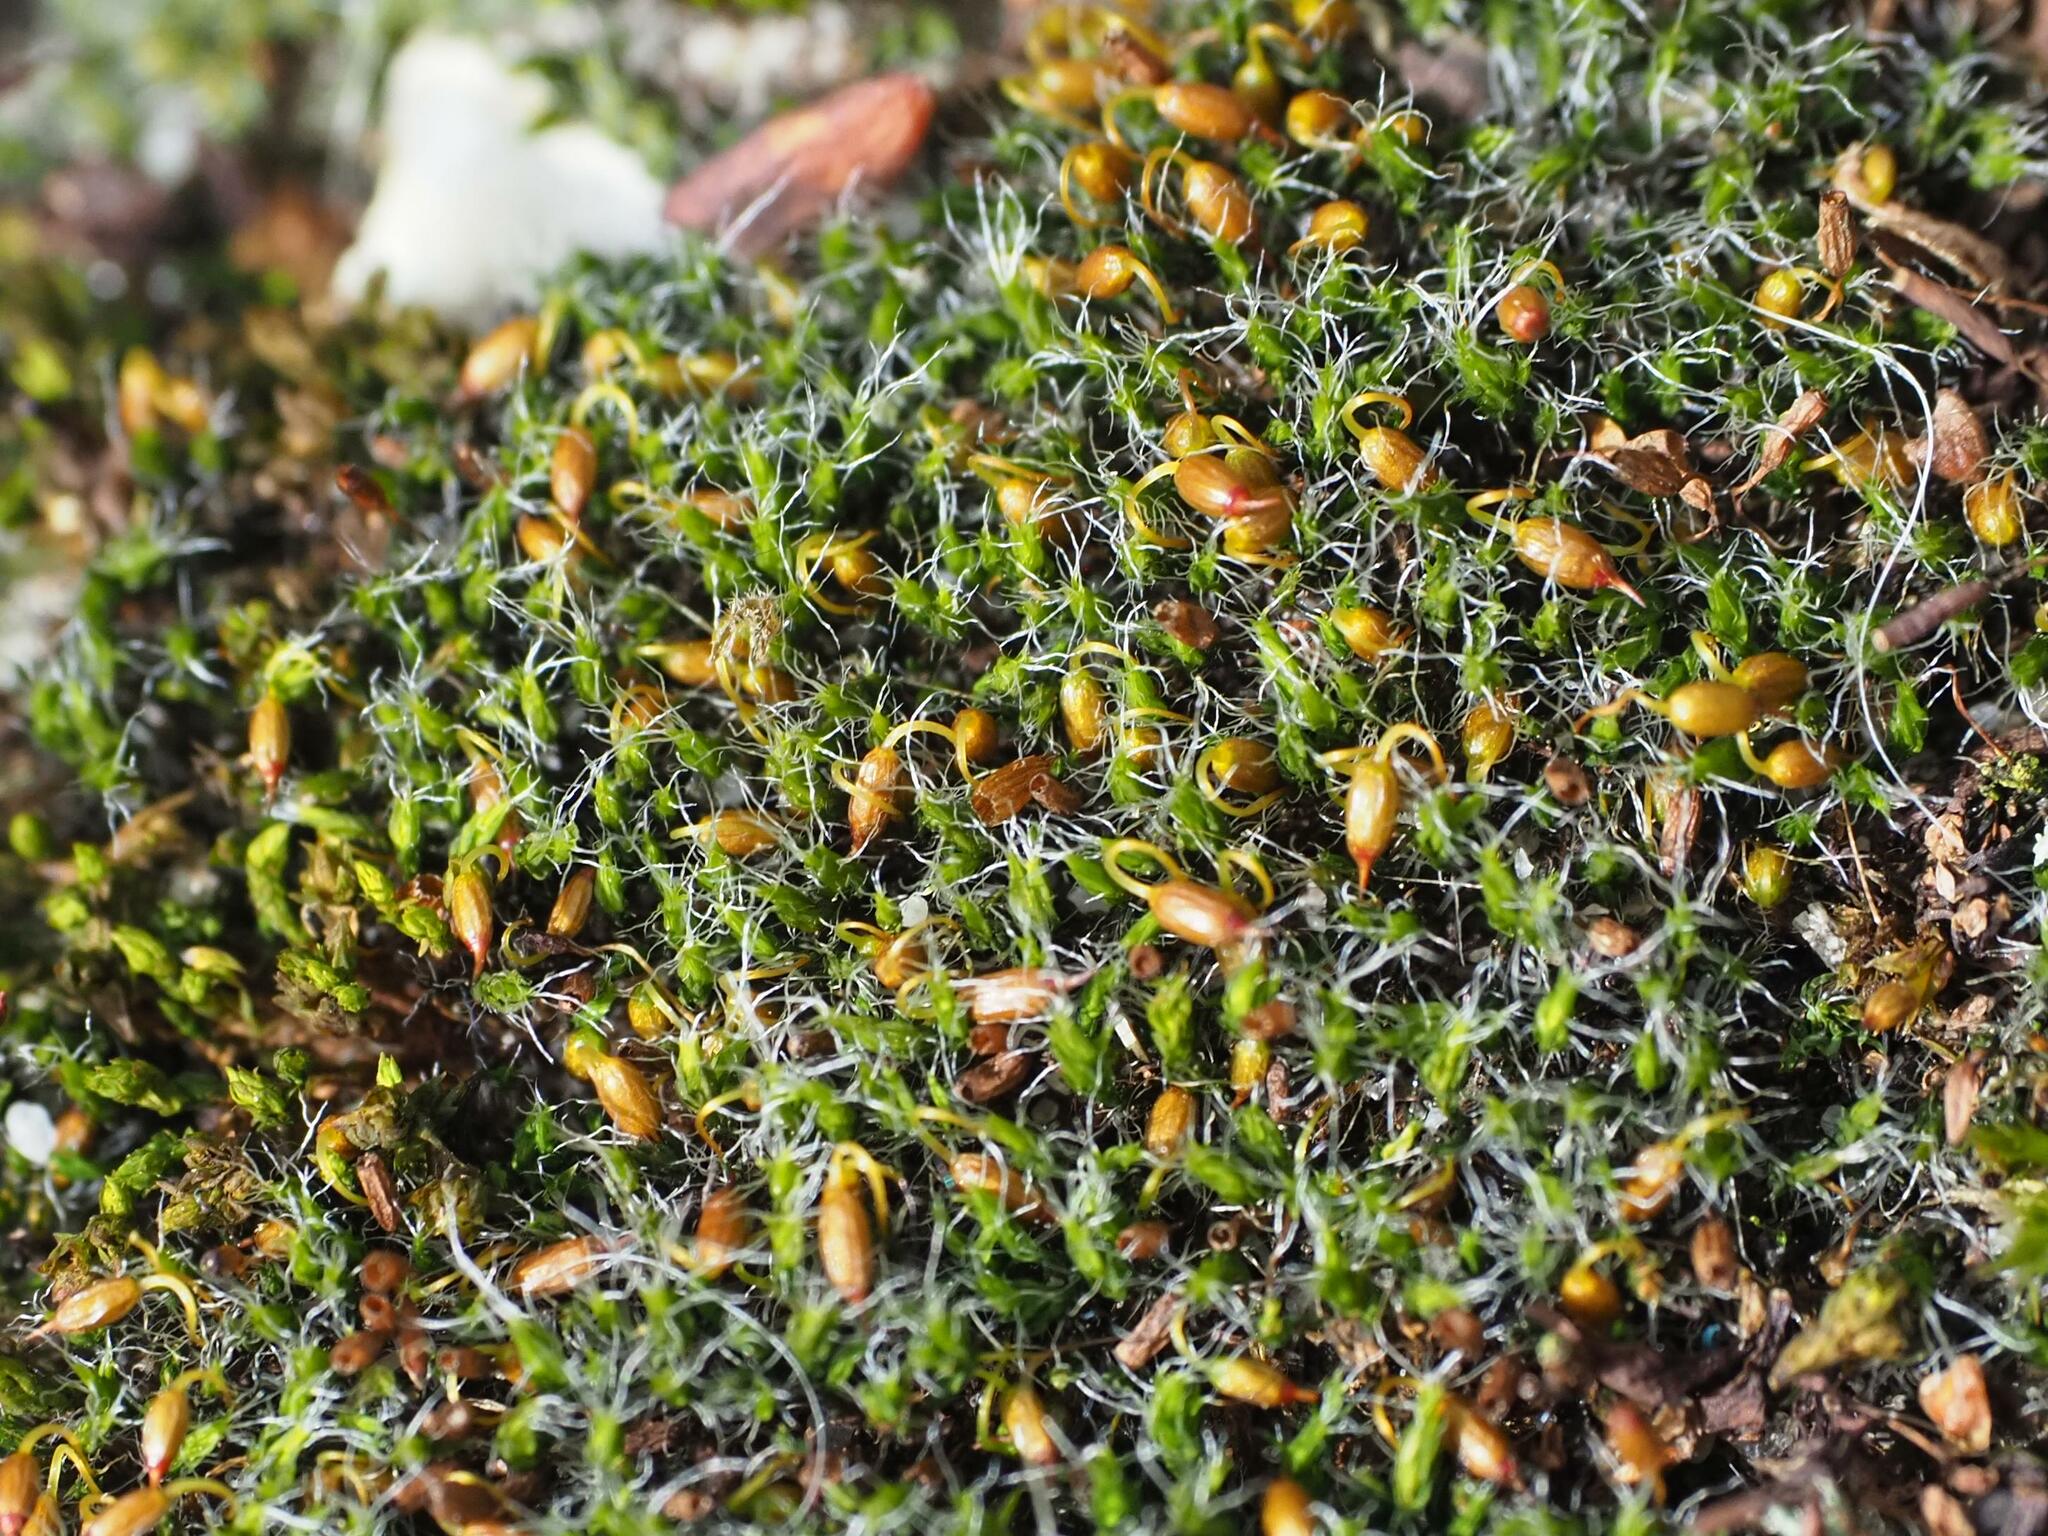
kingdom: Plantae
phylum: Bryophyta
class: Bryopsida
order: Grimmiales
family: Grimmiaceae
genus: Grimmia
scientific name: Grimmia pulvinata
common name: Grey-cushioned grimmia
